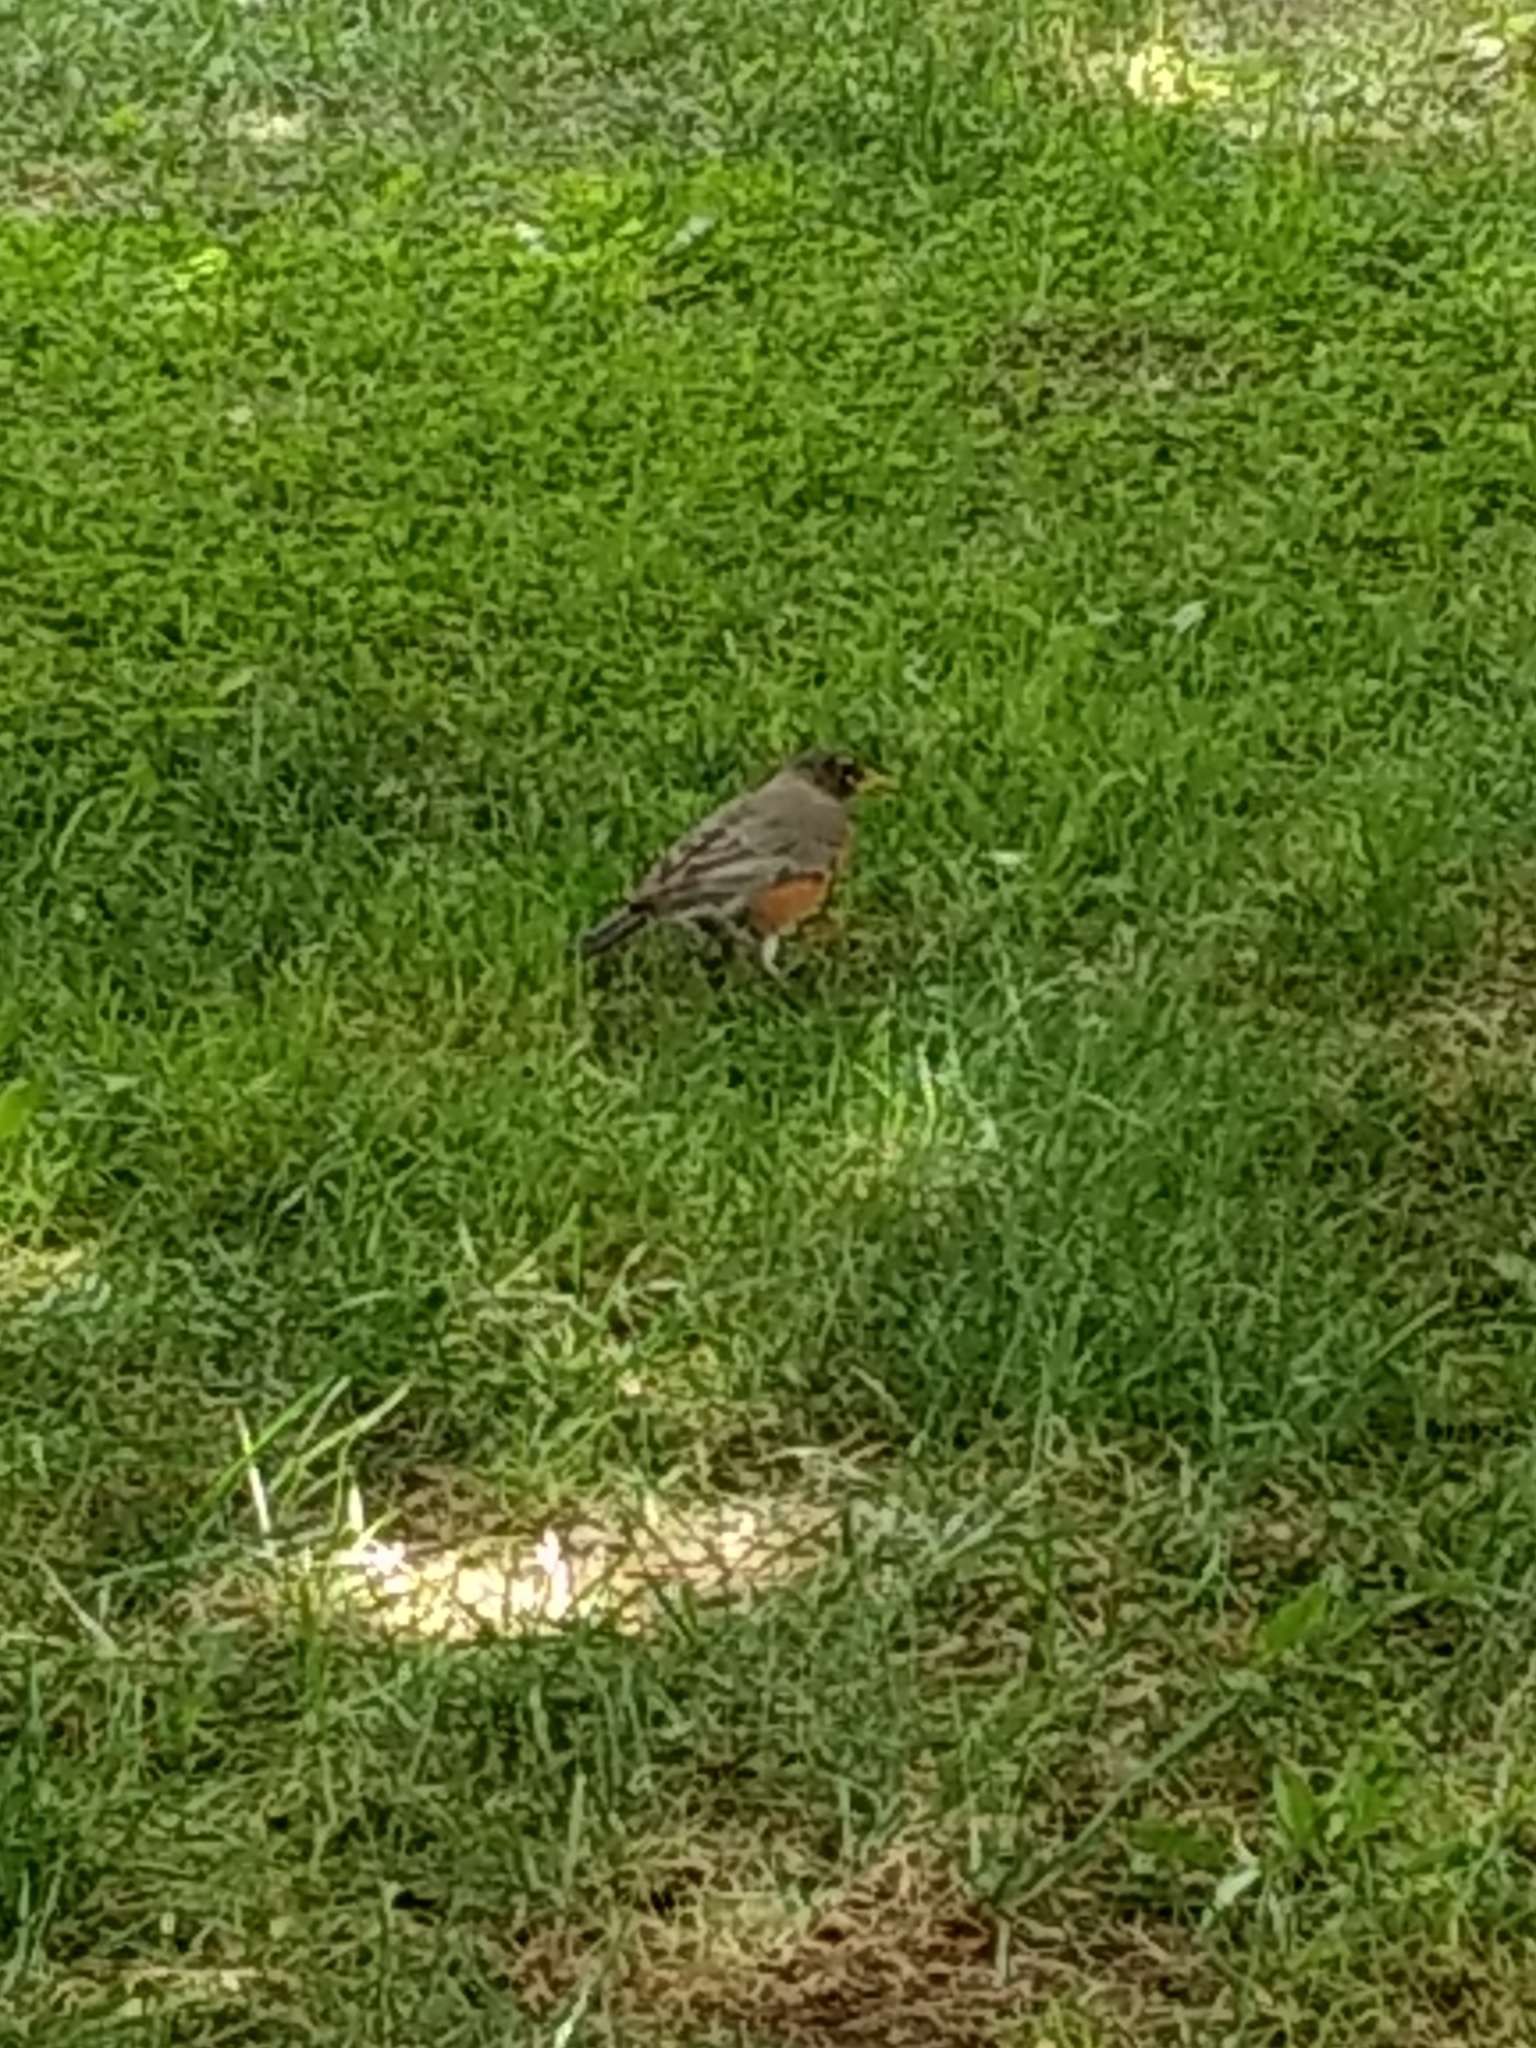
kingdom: Animalia
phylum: Chordata
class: Aves
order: Passeriformes
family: Turdidae
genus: Turdus
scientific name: Turdus migratorius
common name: American robin
